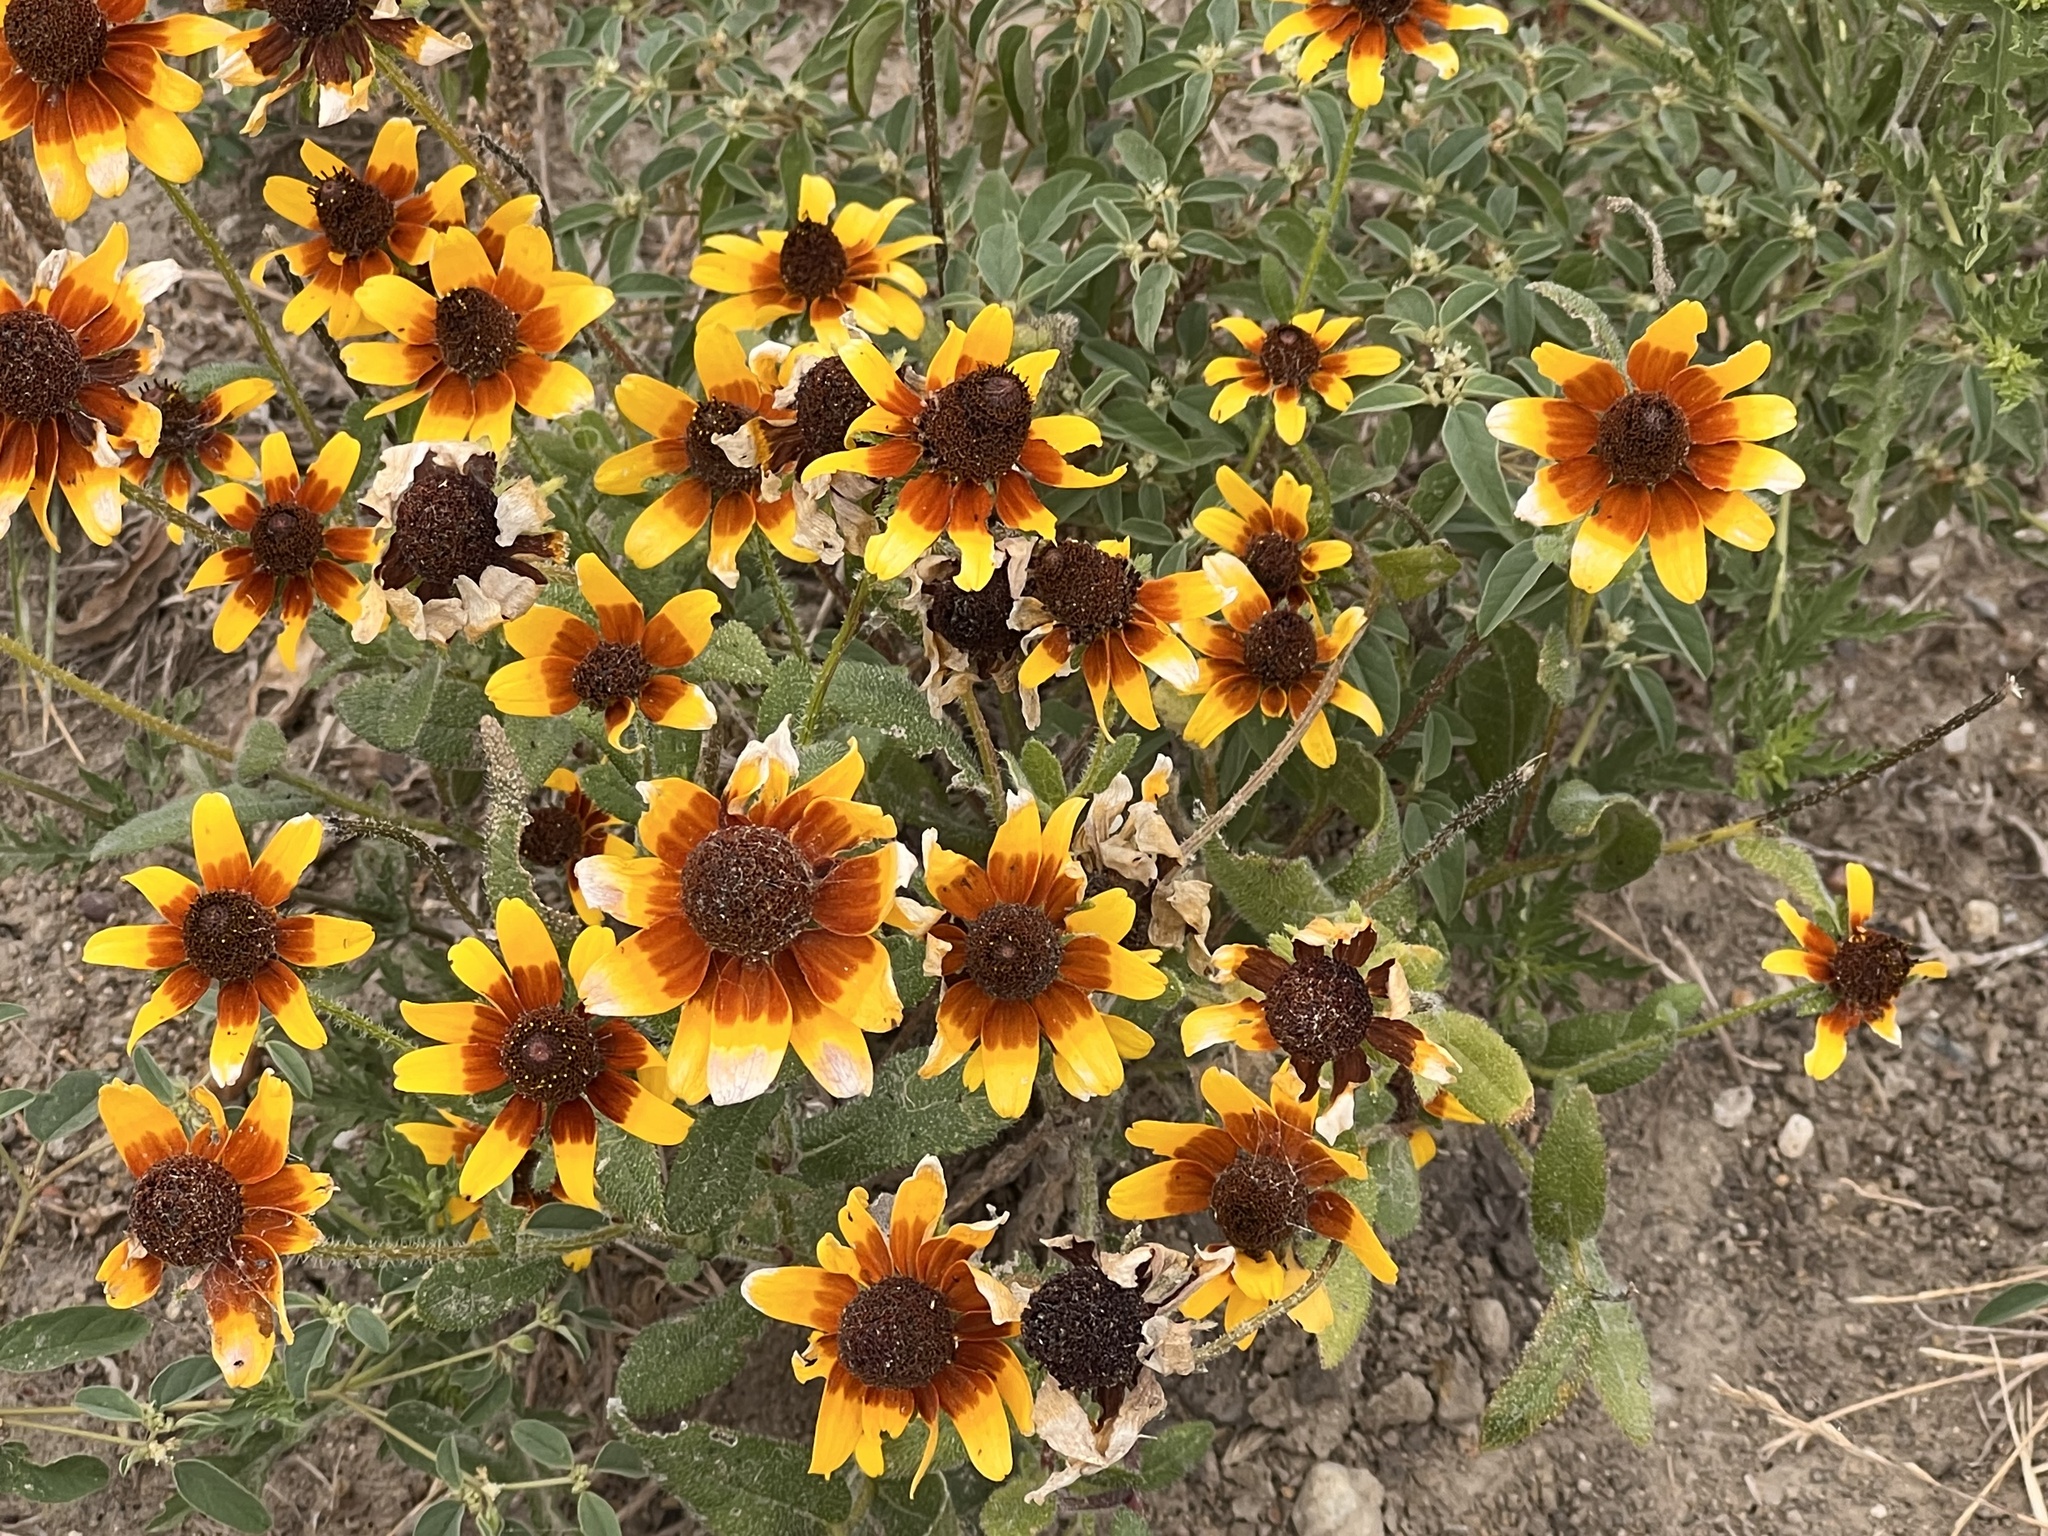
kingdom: Plantae
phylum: Tracheophyta
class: Magnoliopsida
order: Asterales
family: Asteraceae
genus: Rudbeckia
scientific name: Rudbeckia hirta
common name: Black-eyed-susan
